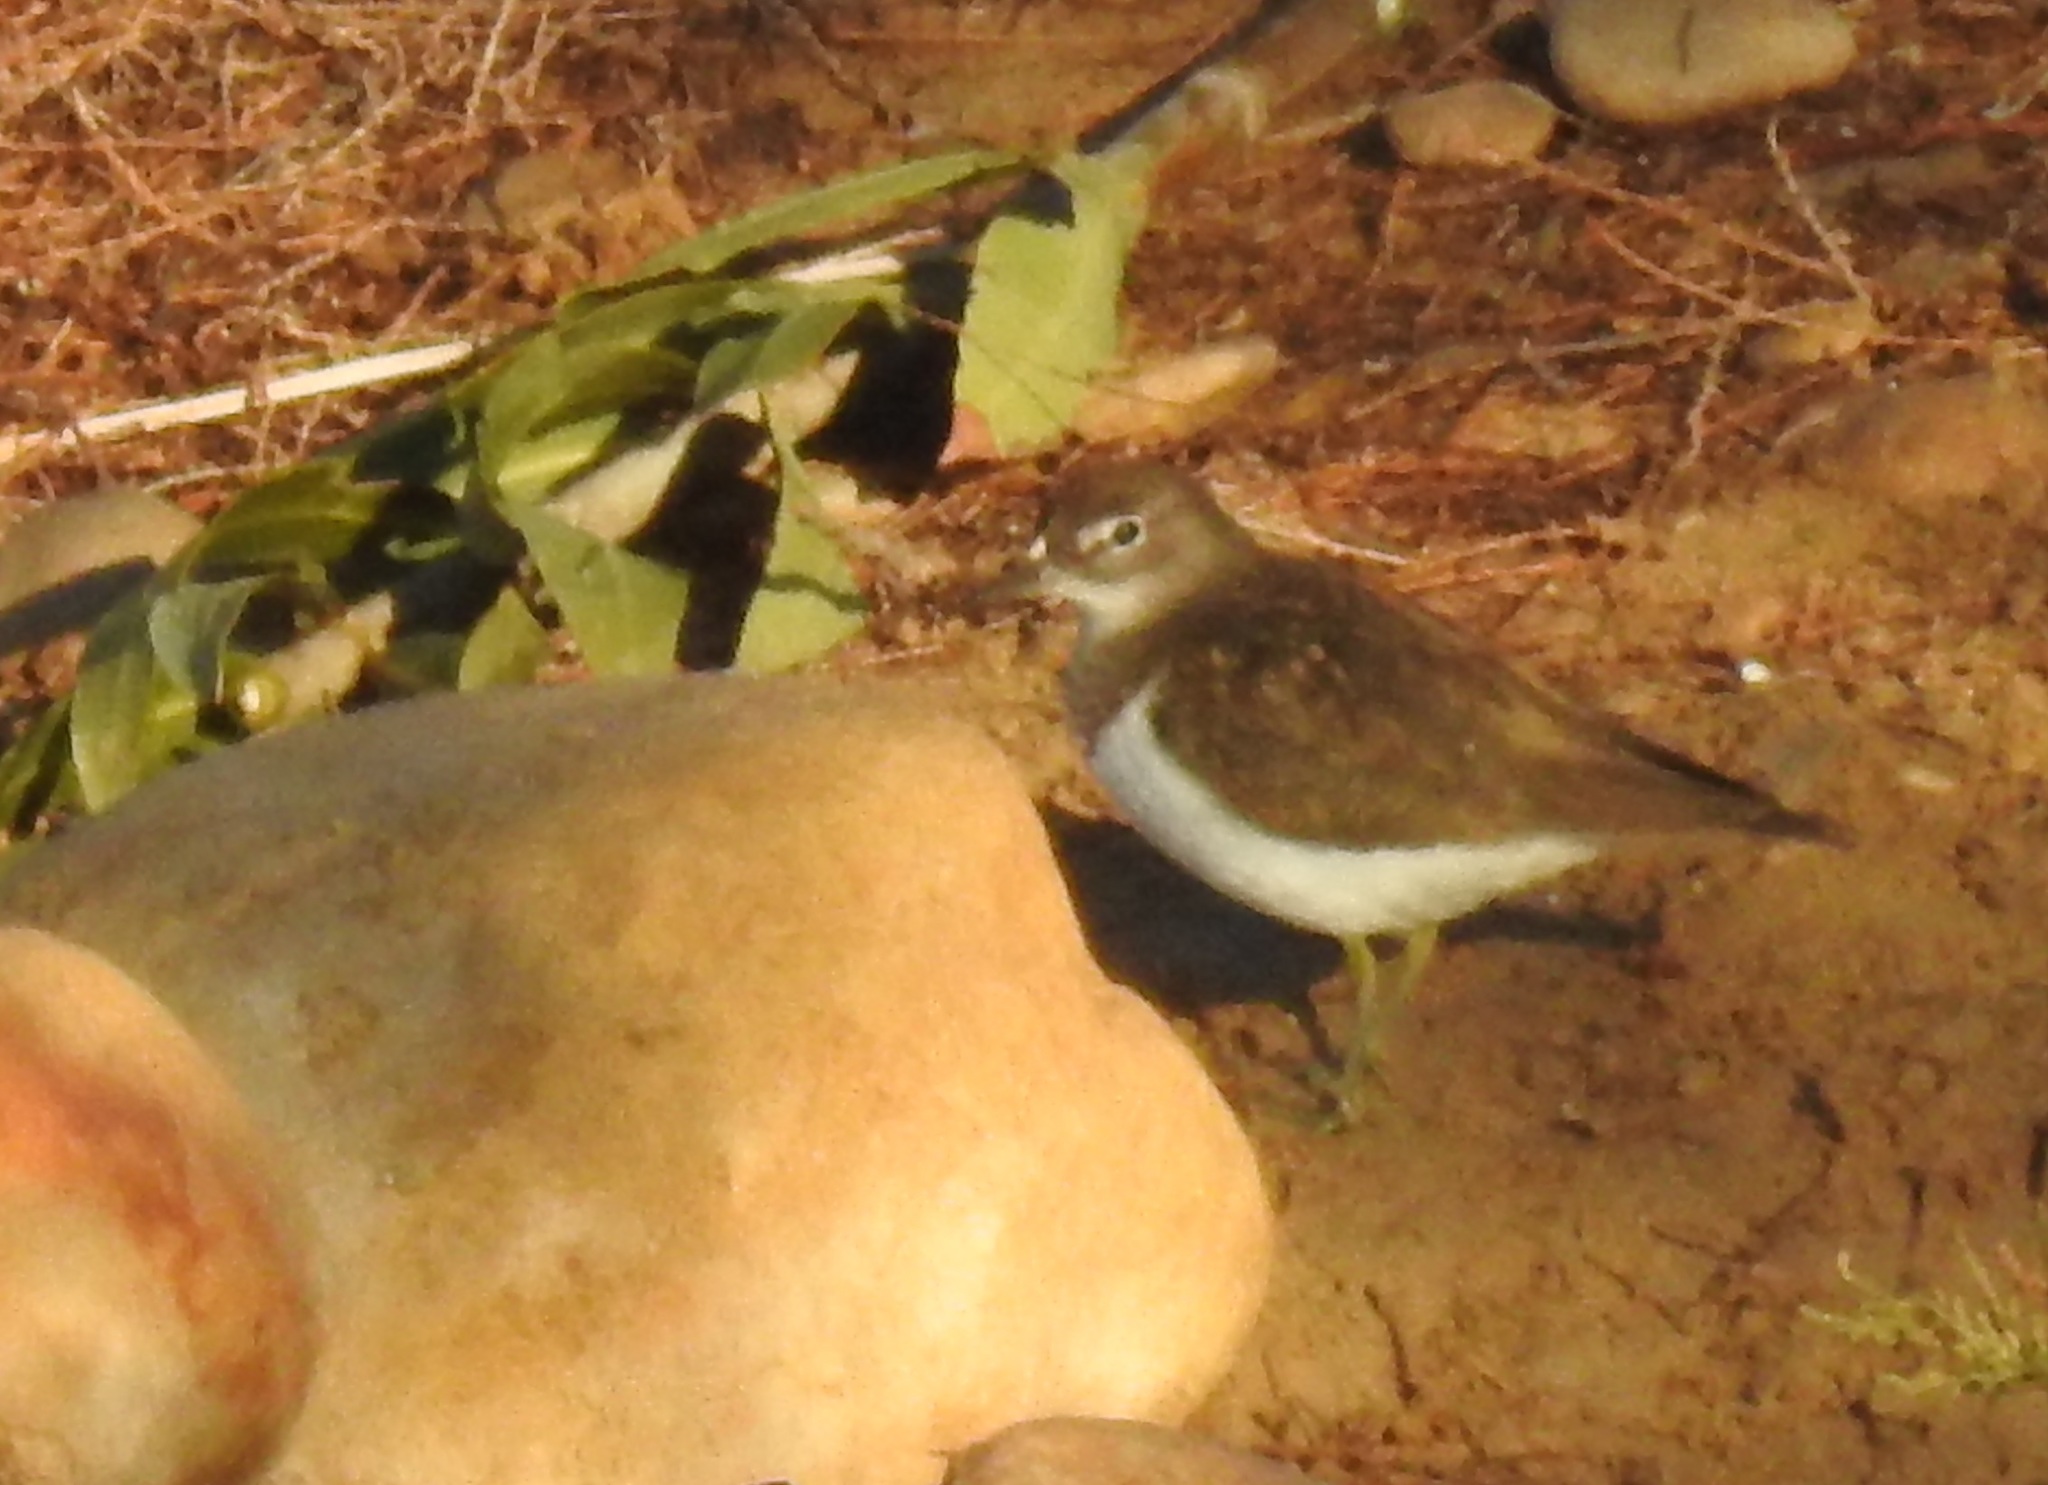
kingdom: Animalia
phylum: Chordata
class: Aves
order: Charadriiformes
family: Scolopacidae
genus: Actitis
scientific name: Actitis hypoleucos
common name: Common sandpiper
